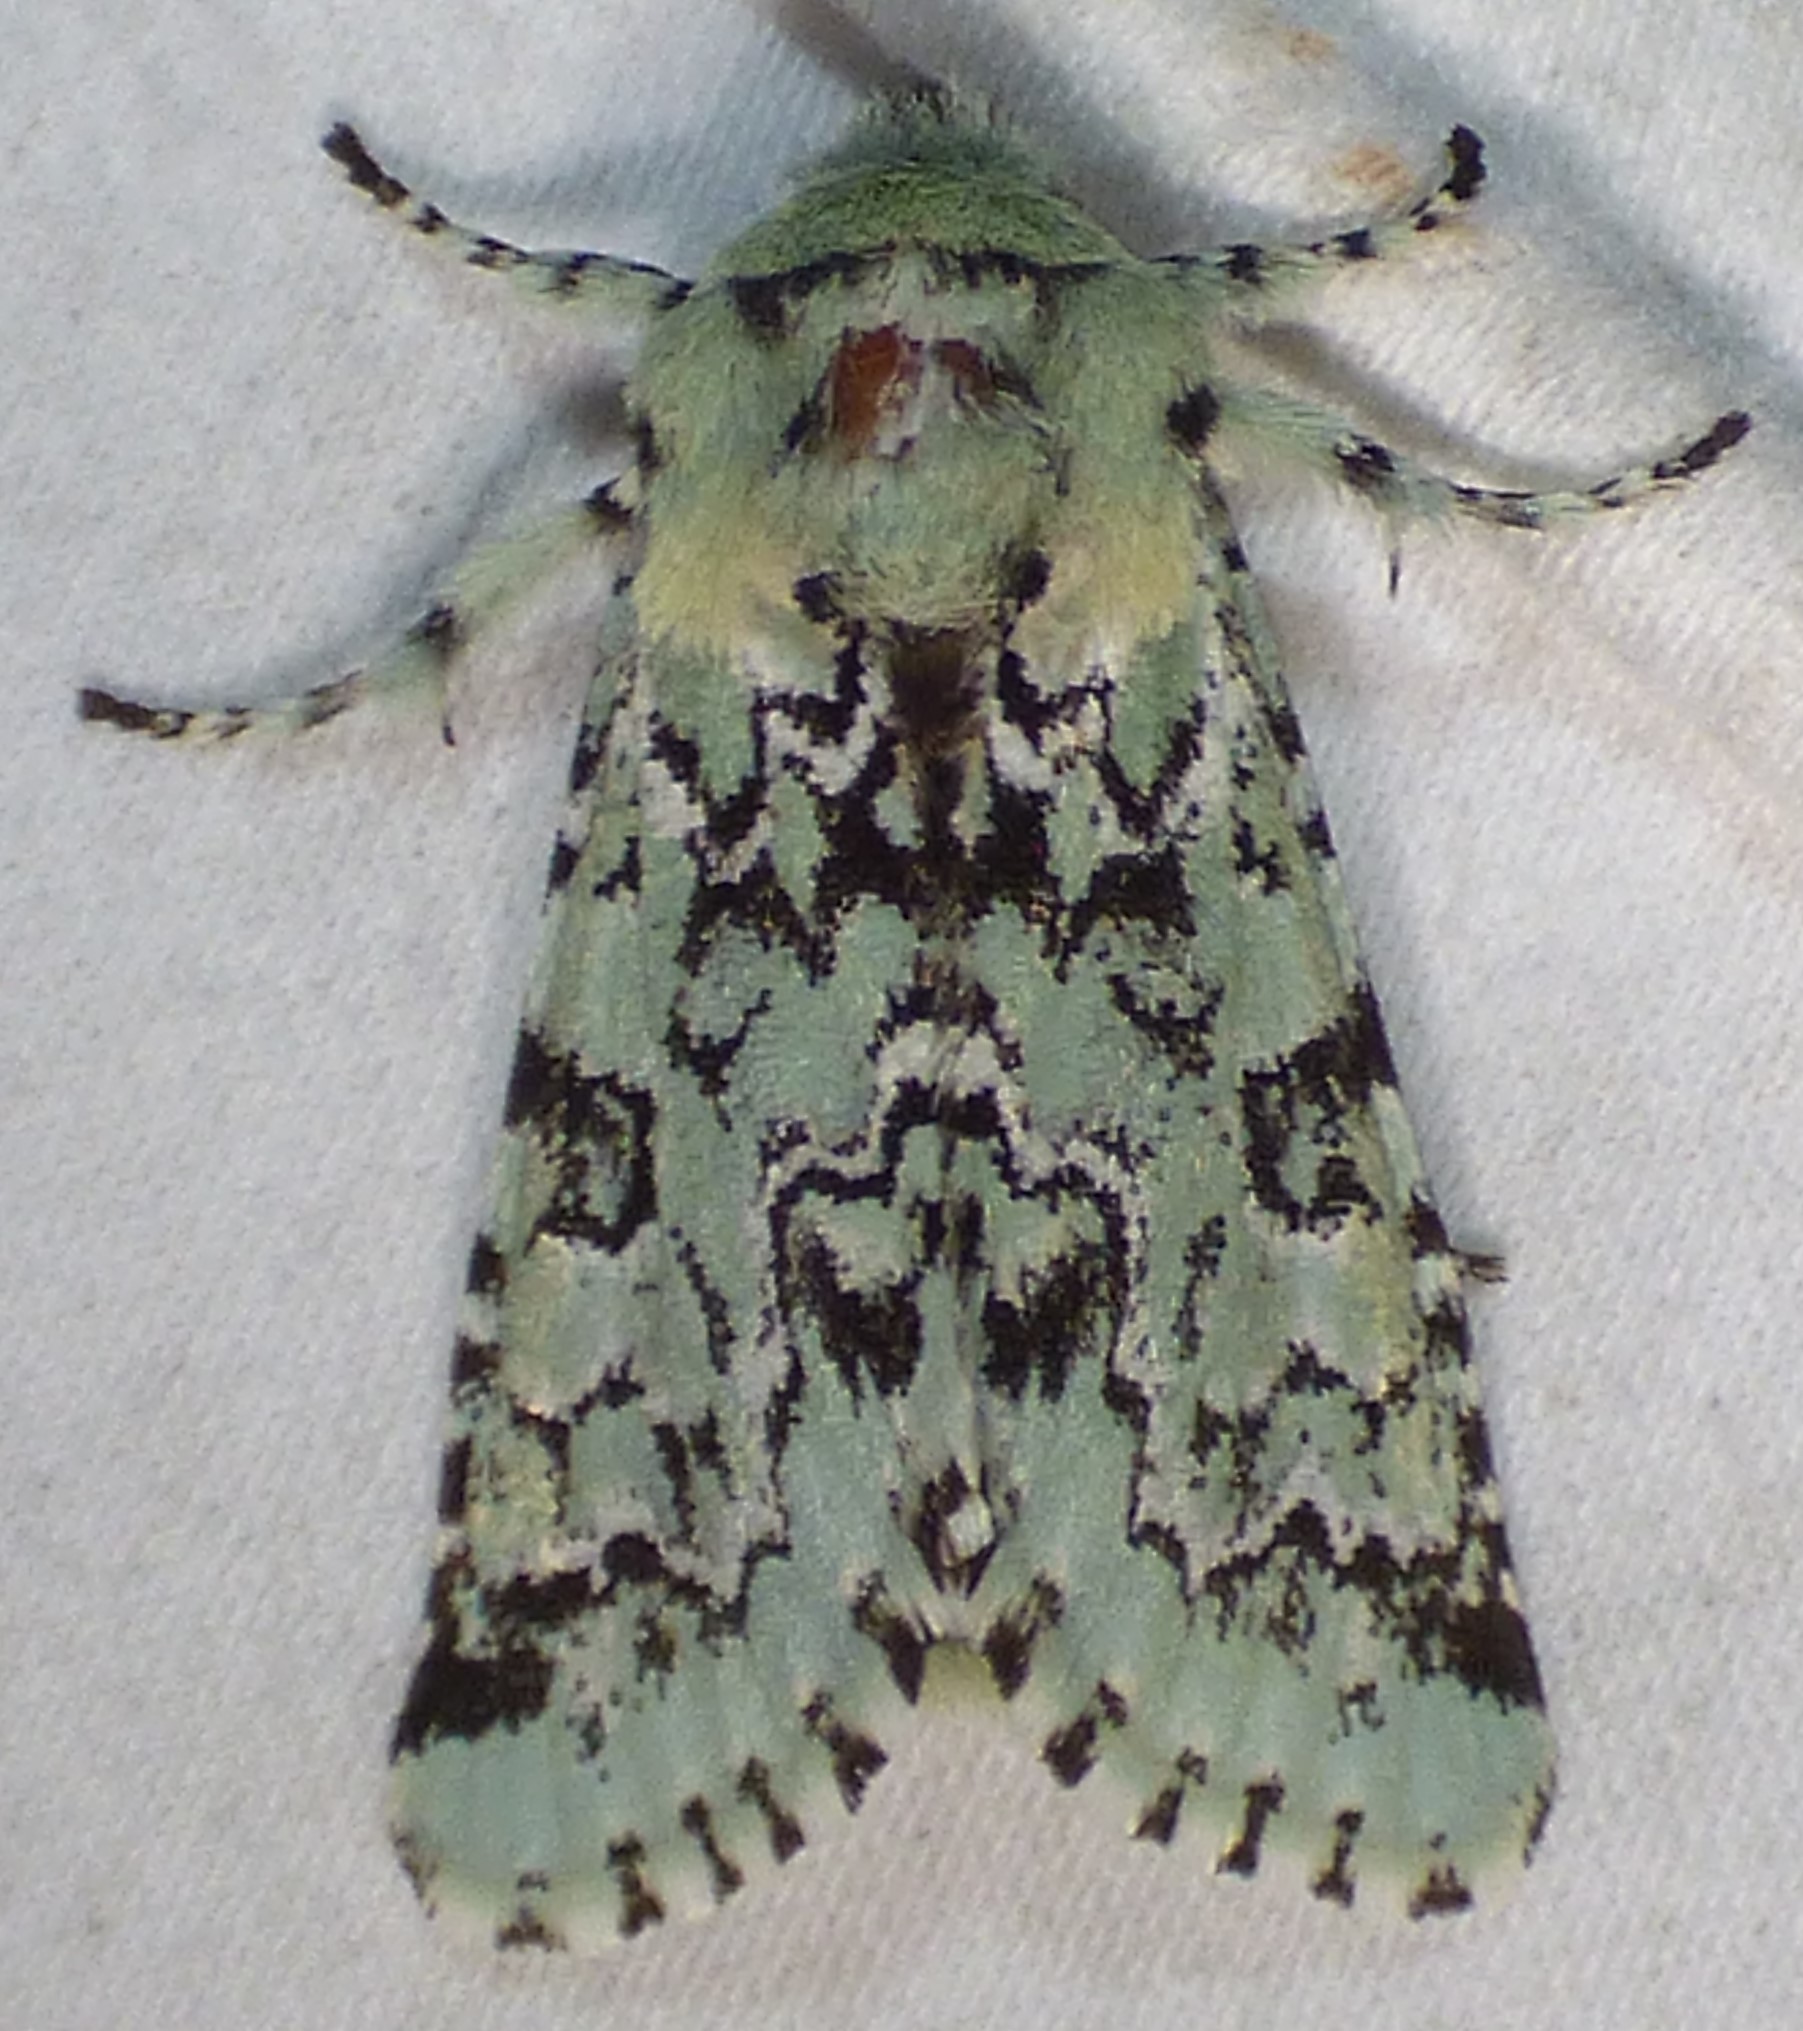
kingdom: Animalia
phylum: Arthropoda
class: Insecta
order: Lepidoptera
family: Noctuidae
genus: Feralia
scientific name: Feralia major
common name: Major sallow
